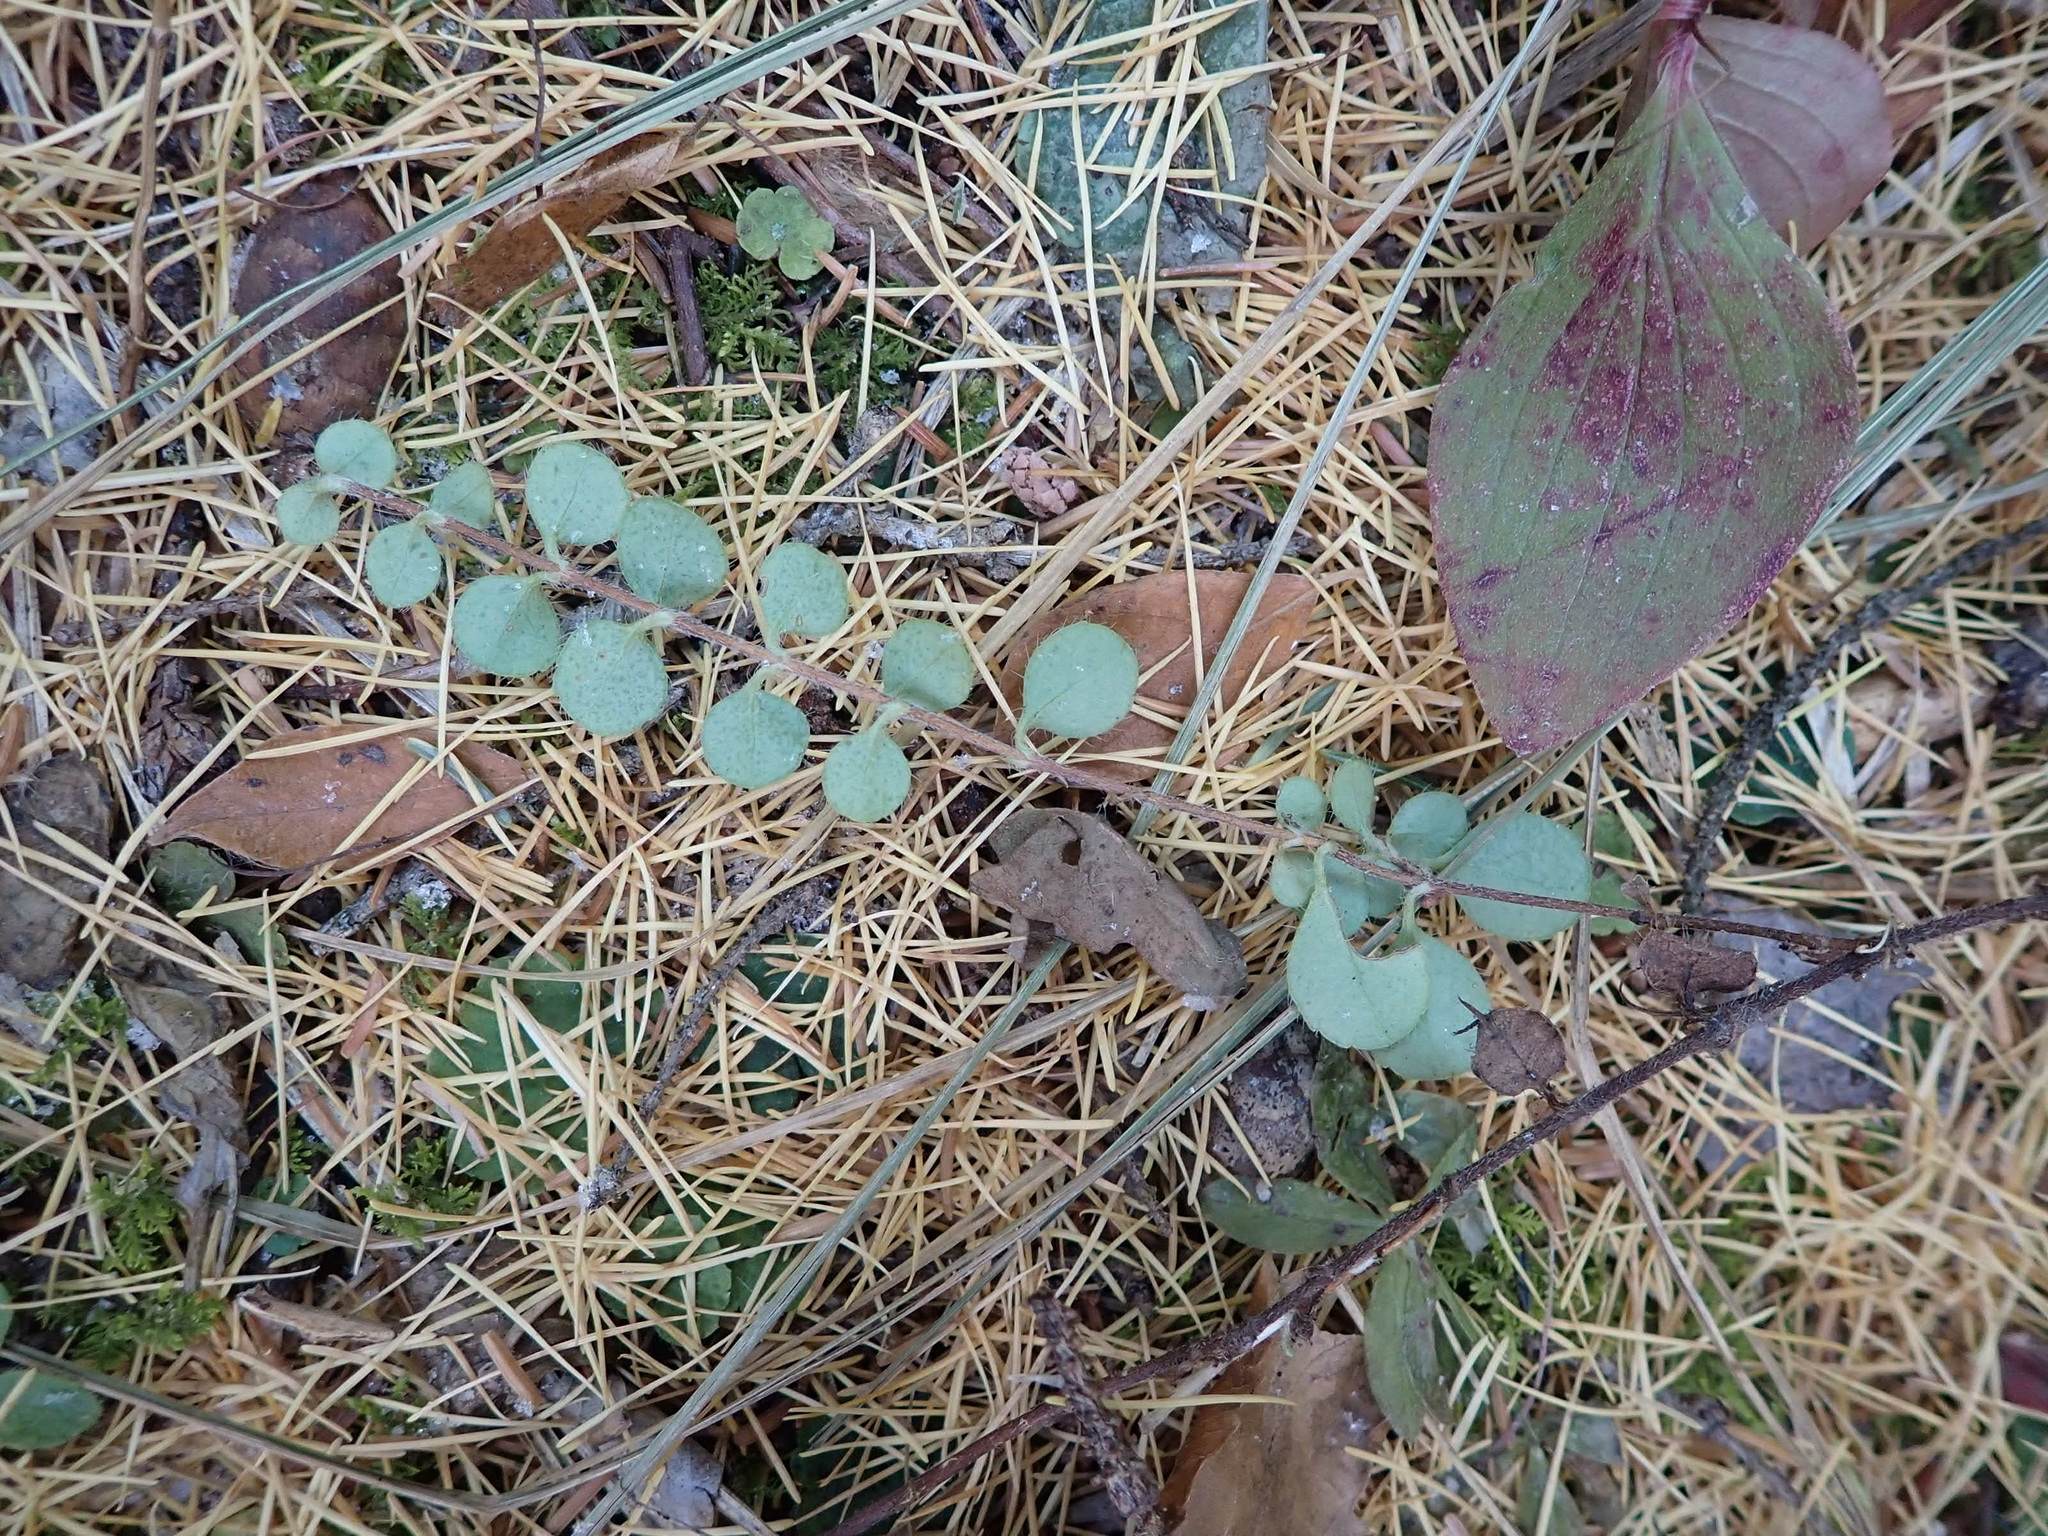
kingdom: Plantae
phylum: Tracheophyta
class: Magnoliopsida
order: Dipsacales
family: Caprifoliaceae
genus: Linnaea
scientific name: Linnaea borealis
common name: Twinflower
